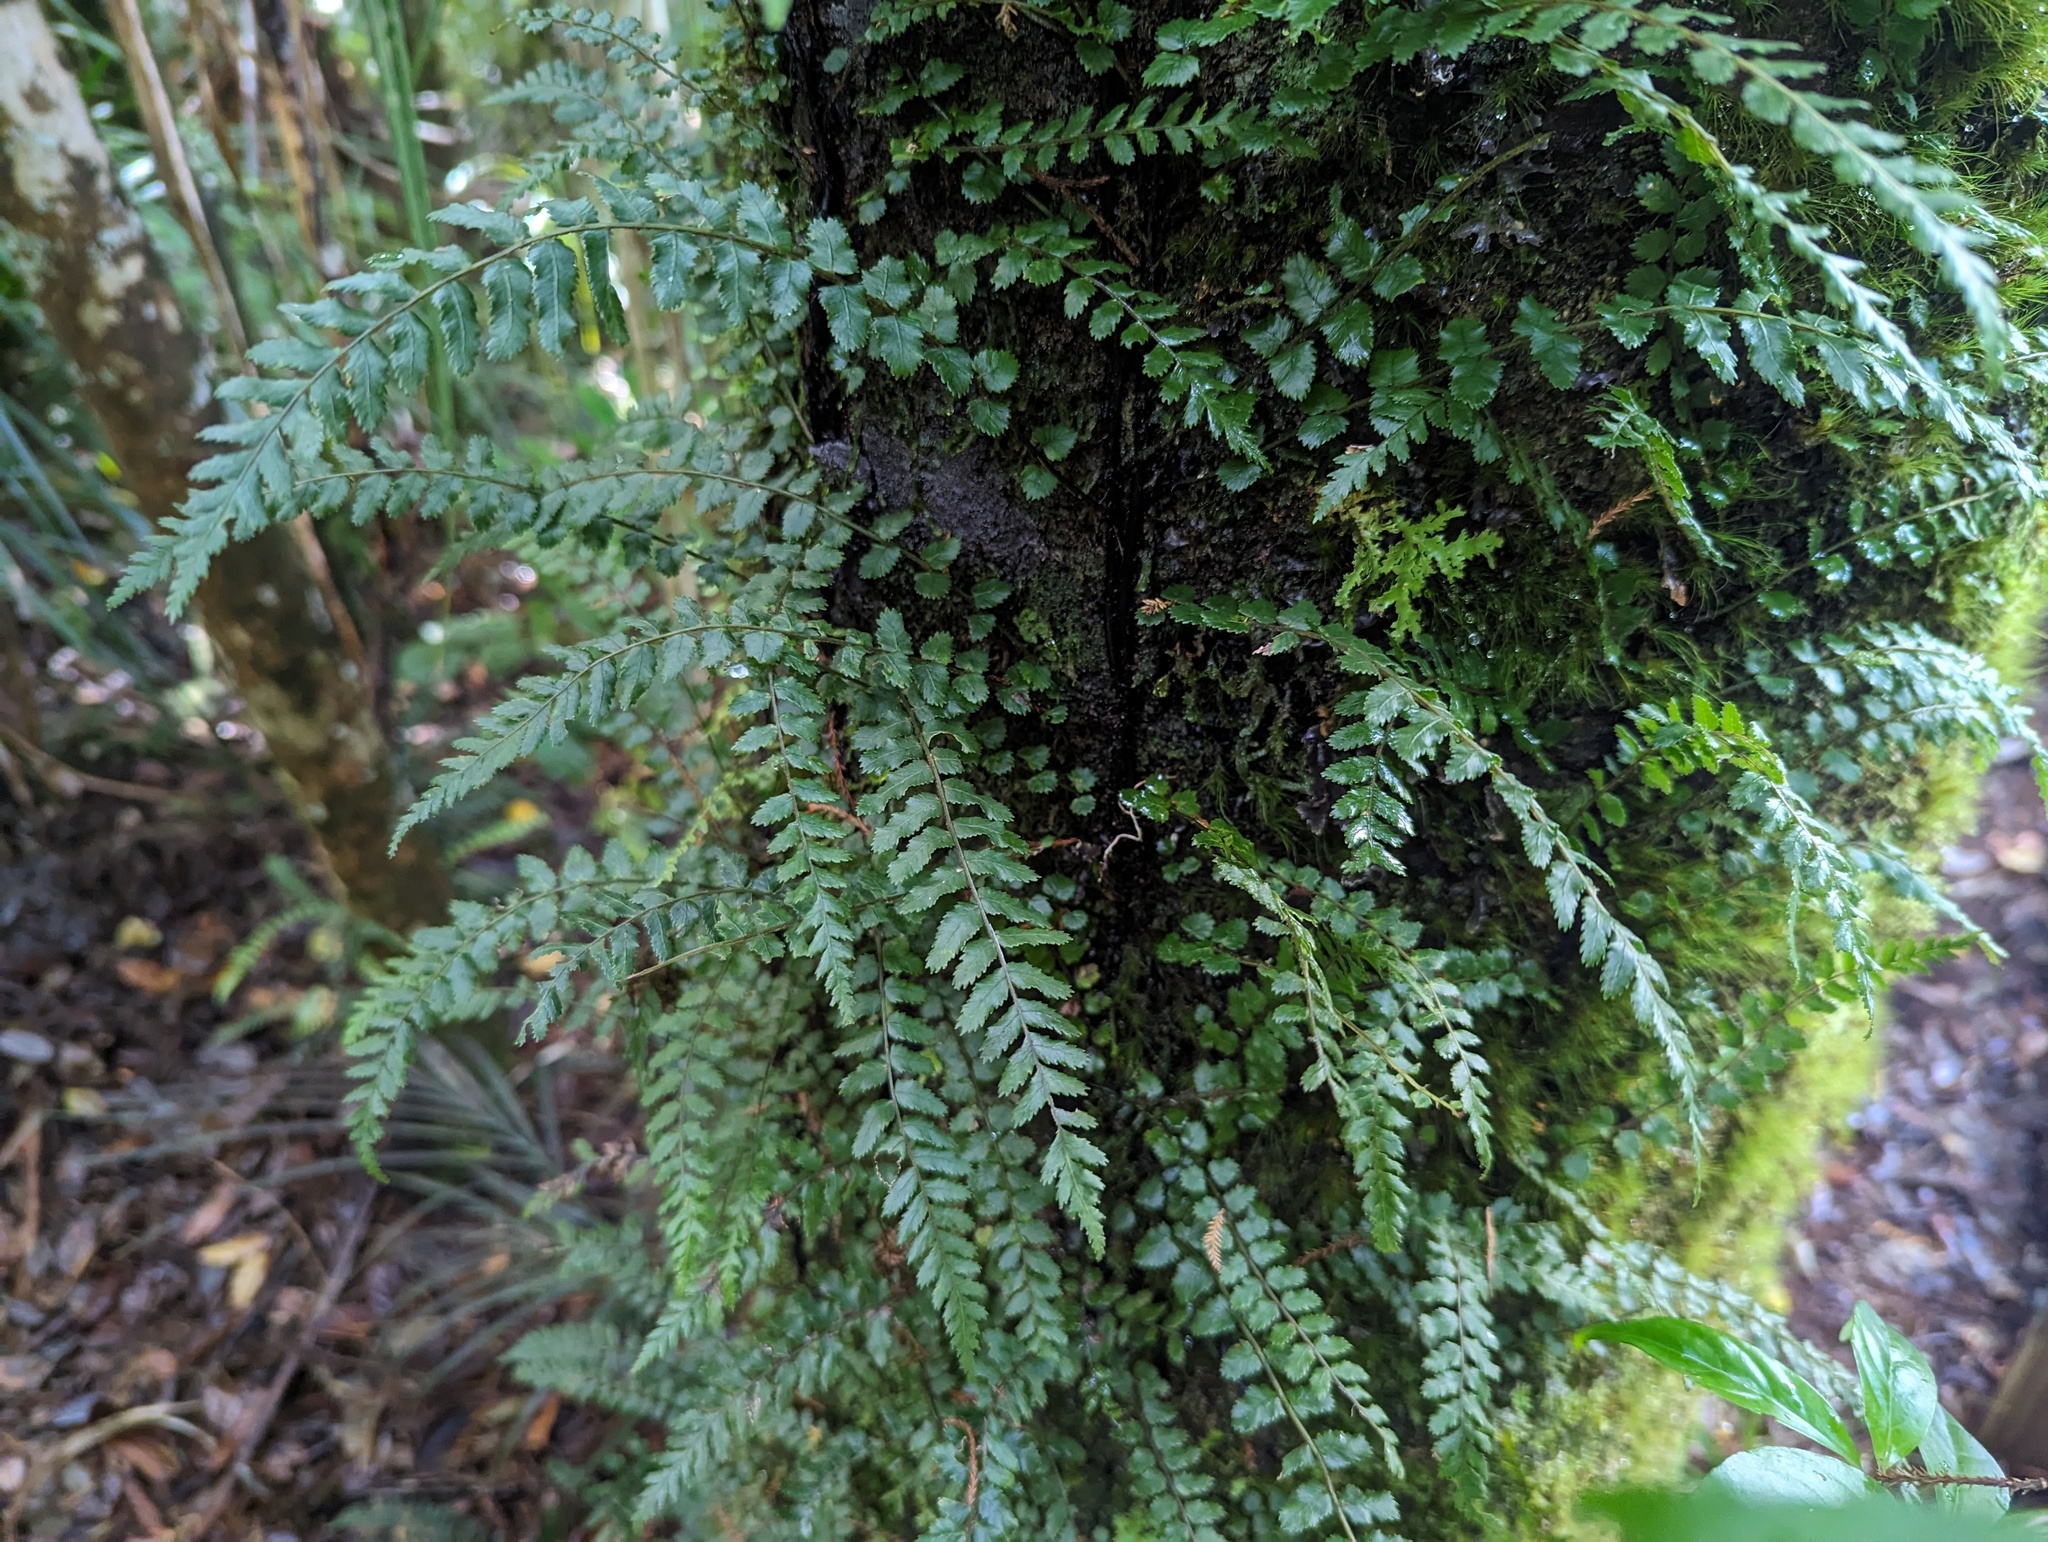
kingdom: Plantae
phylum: Tracheophyta
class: Polypodiopsida
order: Polypodiales
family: Blechnaceae
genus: Icarus
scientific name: Icarus filiformis
